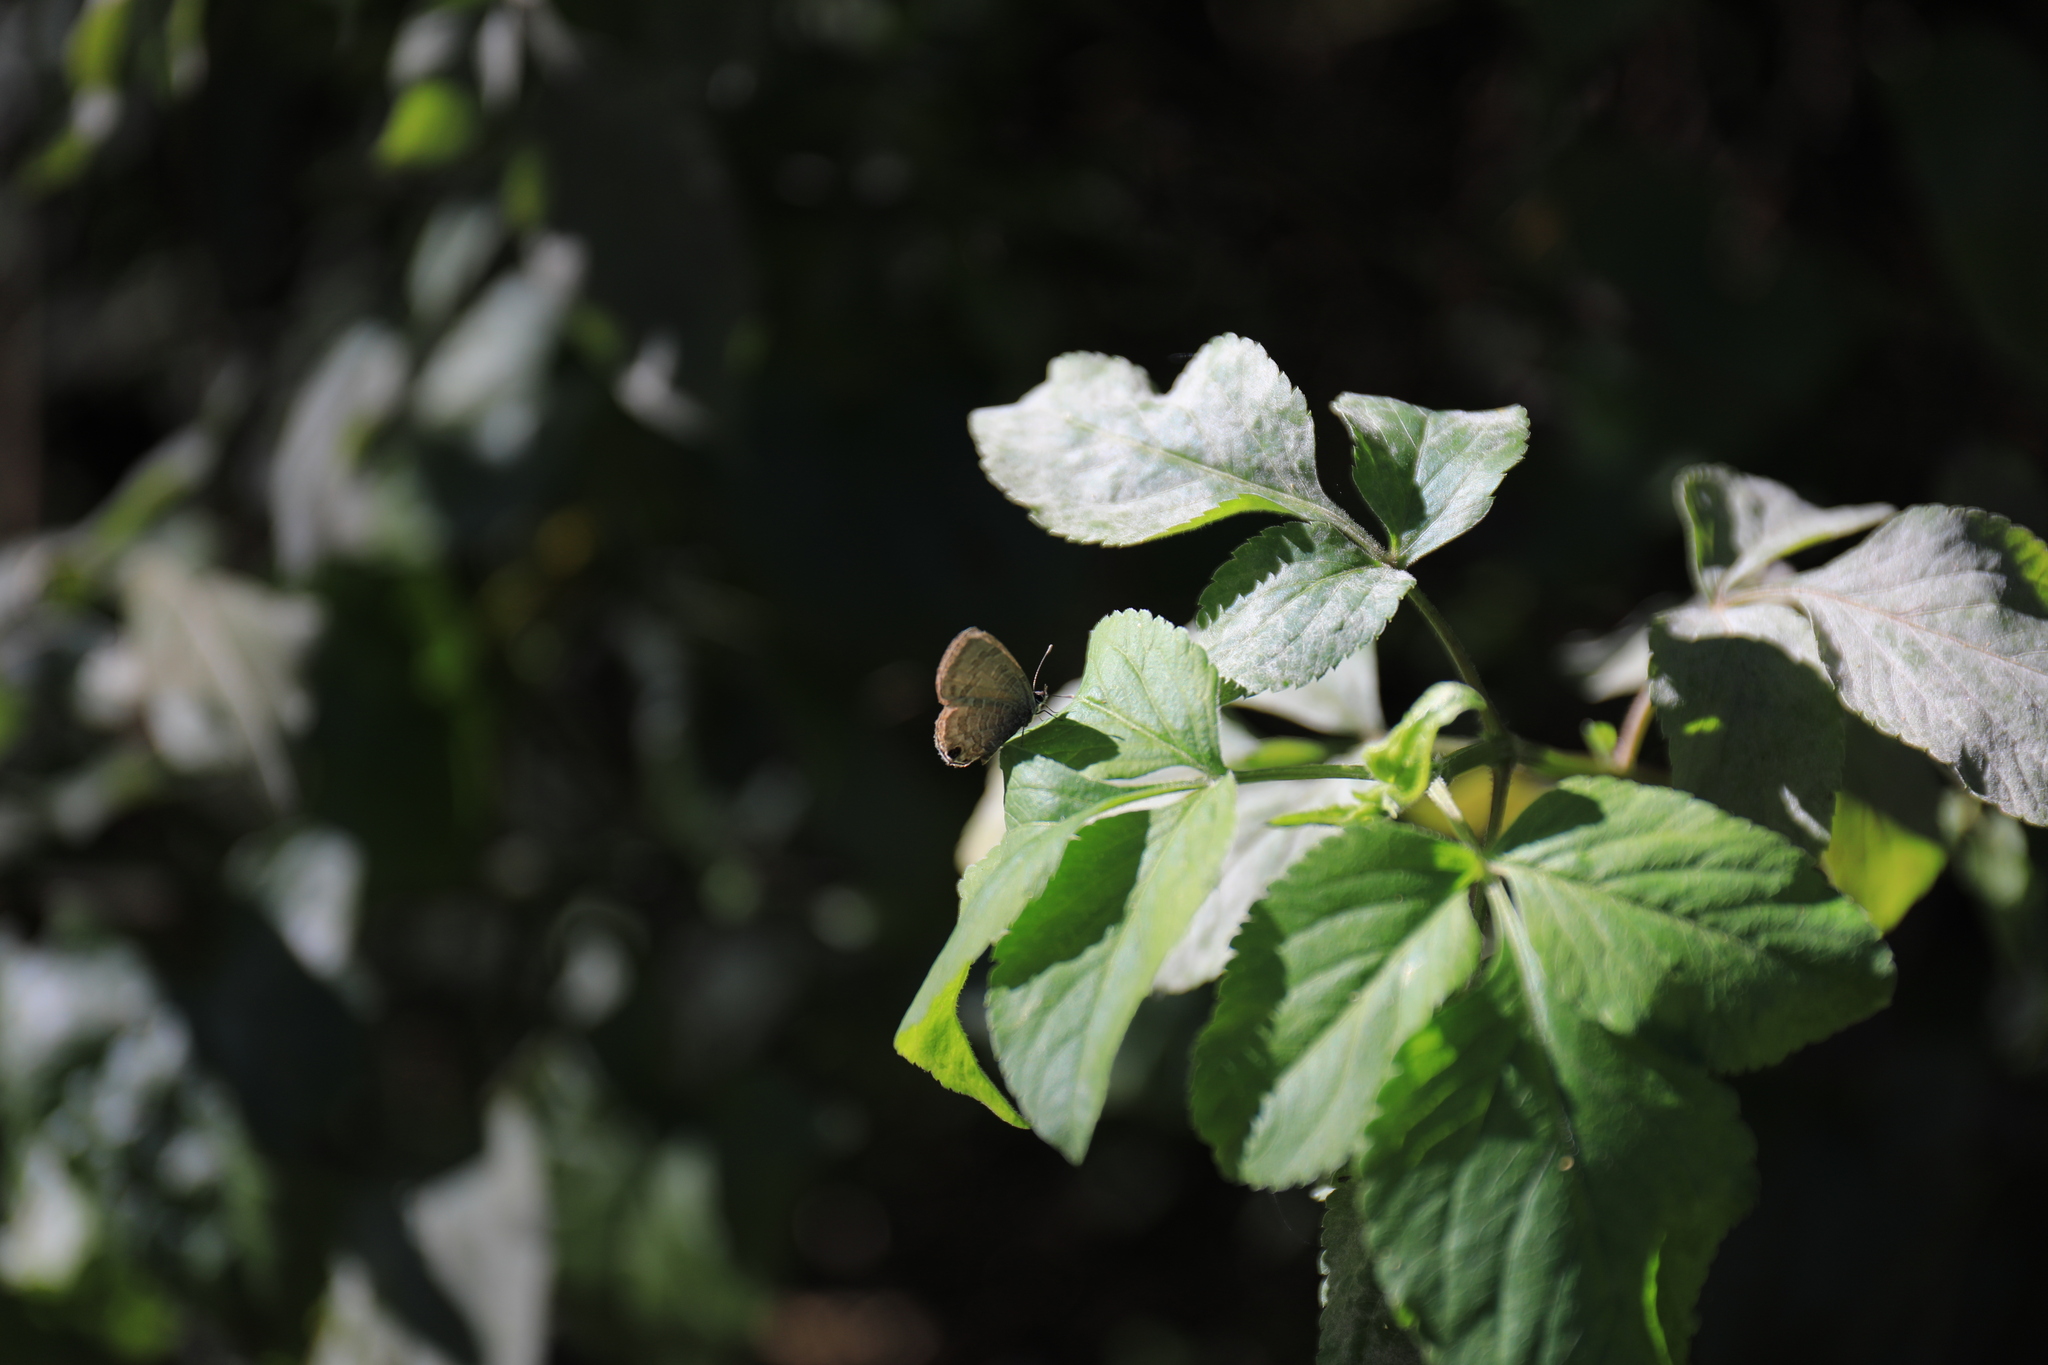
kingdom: Animalia
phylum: Arthropoda
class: Insecta
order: Lepidoptera
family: Lycaenidae
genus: Prosotas
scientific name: Prosotas nora
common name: Common line blue
